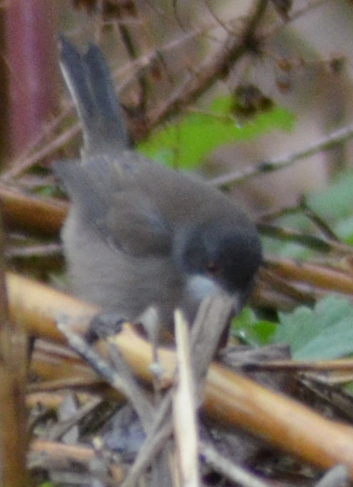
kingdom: Animalia
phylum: Chordata
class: Aves
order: Passeriformes
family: Sylviidae
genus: Curruca
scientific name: Curruca melanocephala
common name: Sardinian warbler
